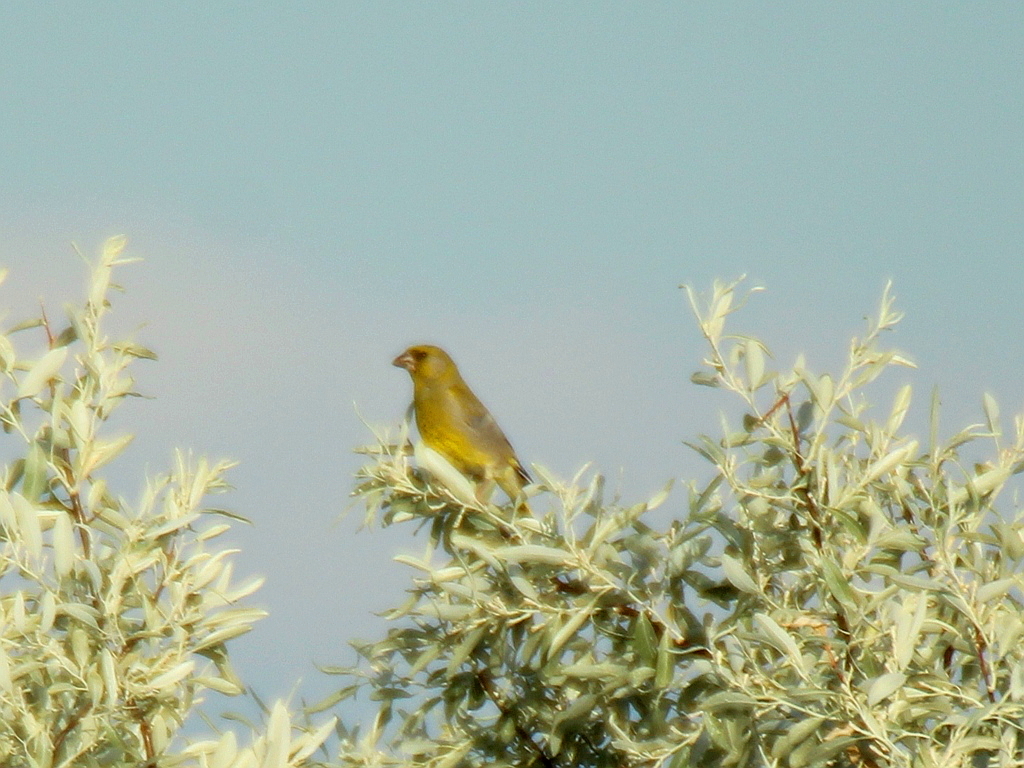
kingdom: Plantae
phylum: Tracheophyta
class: Liliopsida
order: Poales
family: Poaceae
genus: Chloris
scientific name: Chloris chloris
